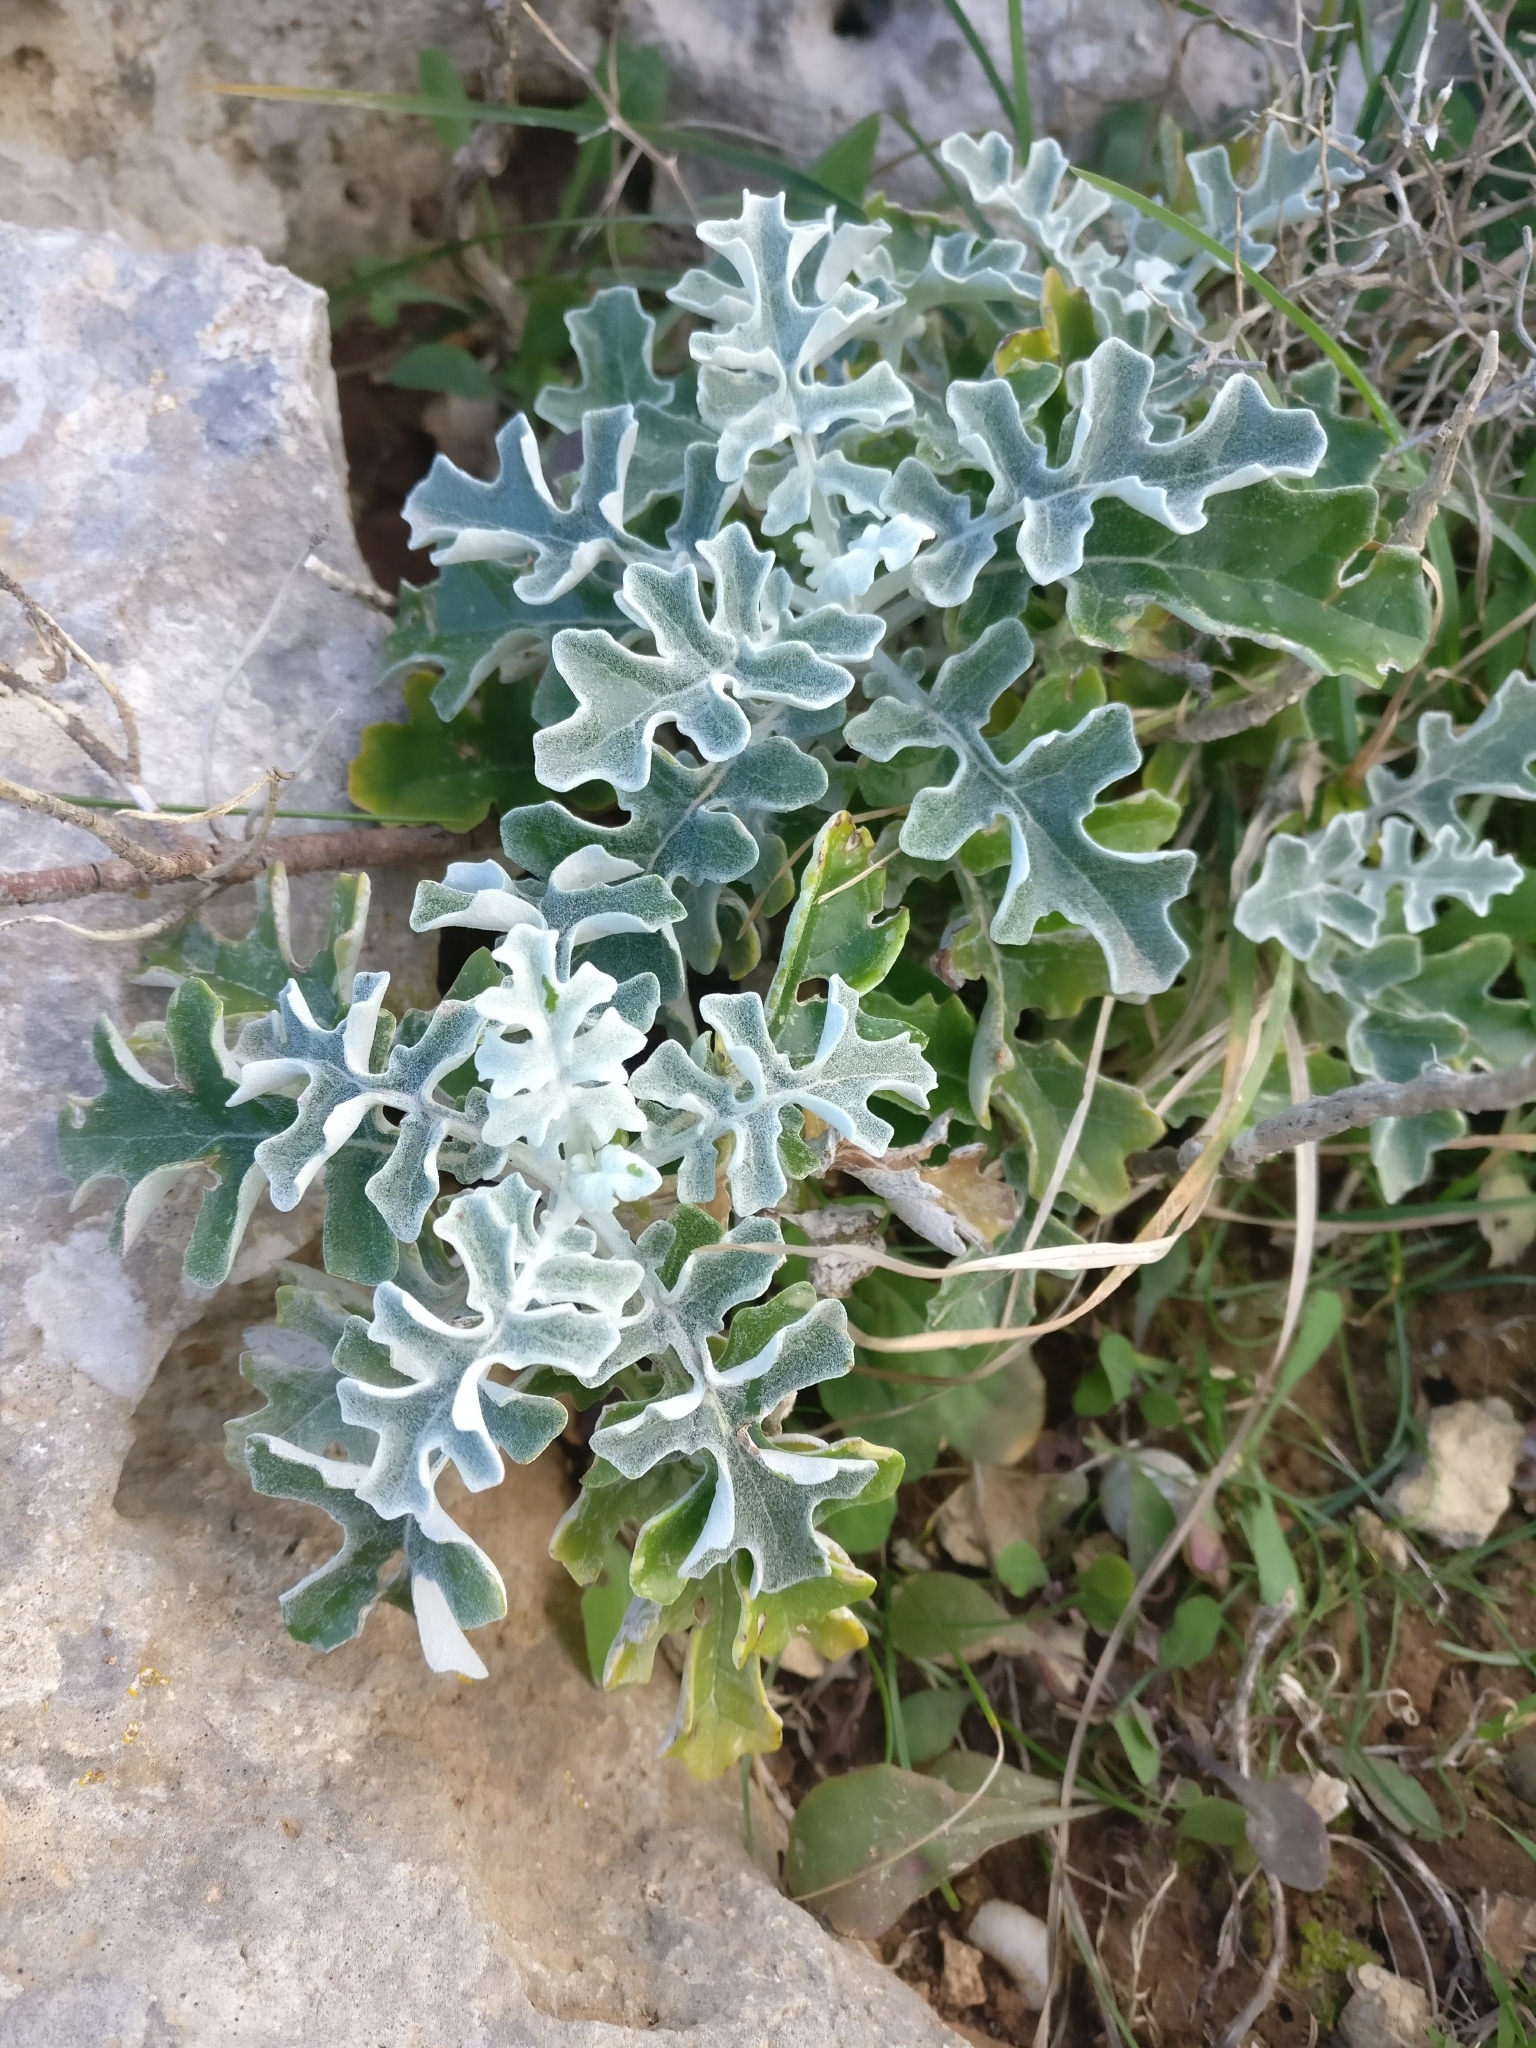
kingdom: Plantae
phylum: Tracheophyta
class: Magnoliopsida
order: Asterales
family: Asteraceae
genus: Jacobaea
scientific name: Jacobaea maritima
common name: Silver ragwort
